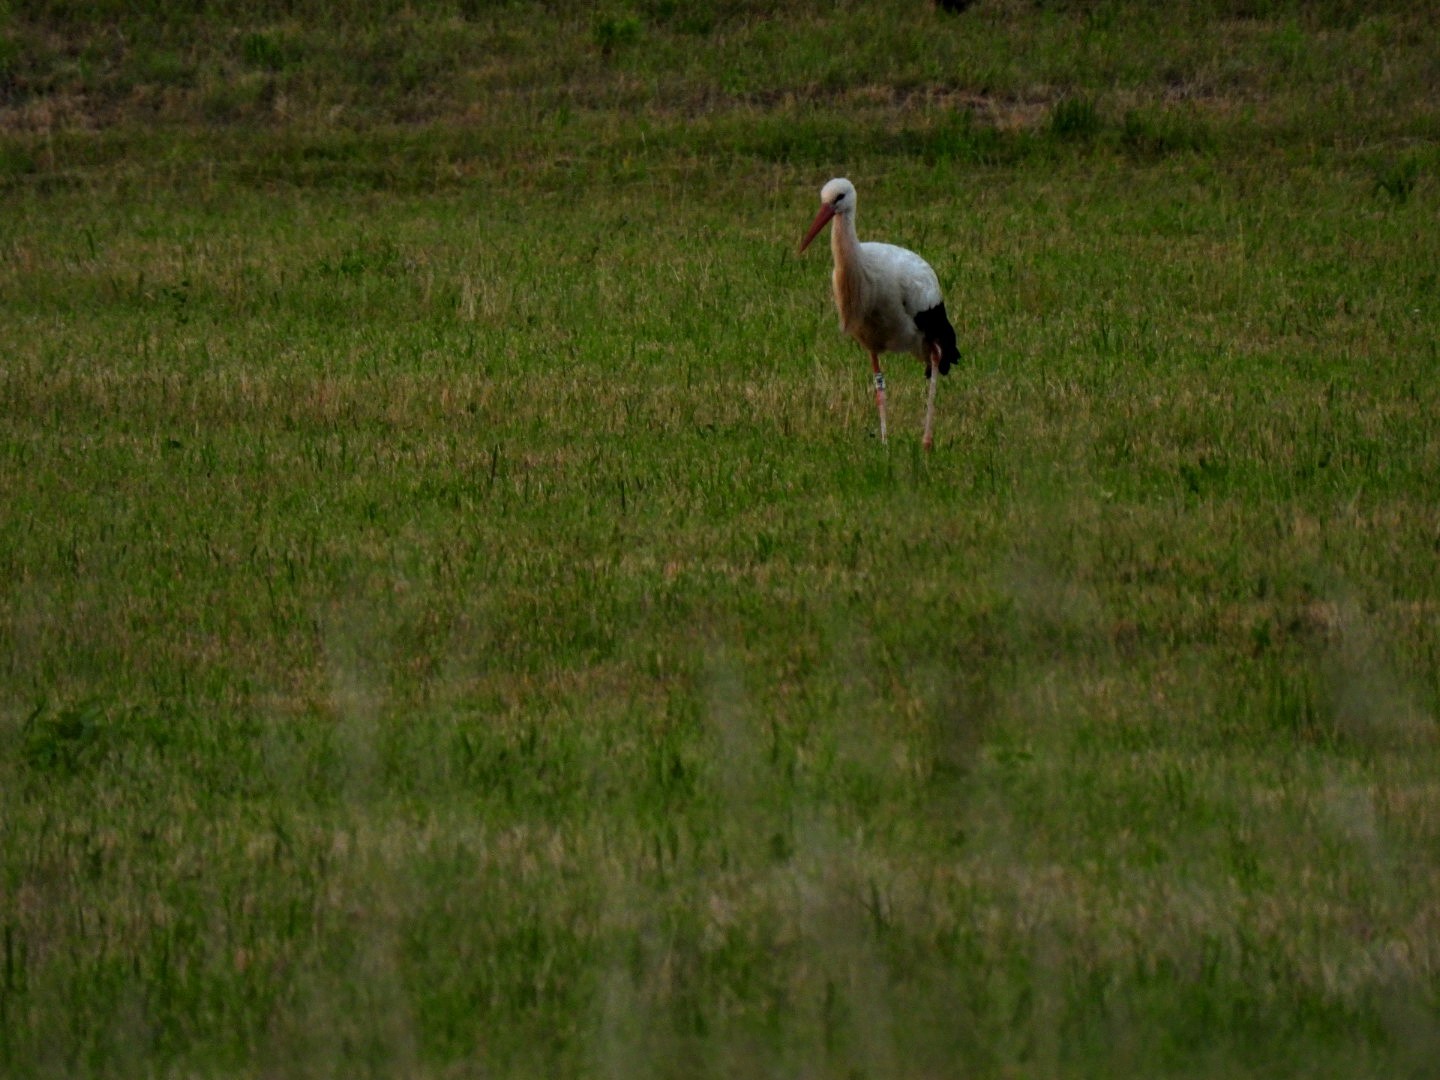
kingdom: Animalia
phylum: Chordata
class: Aves
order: Ciconiiformes
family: Ciconiidae
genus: Ciconia
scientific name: Ciconia ciconia
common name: White stork
